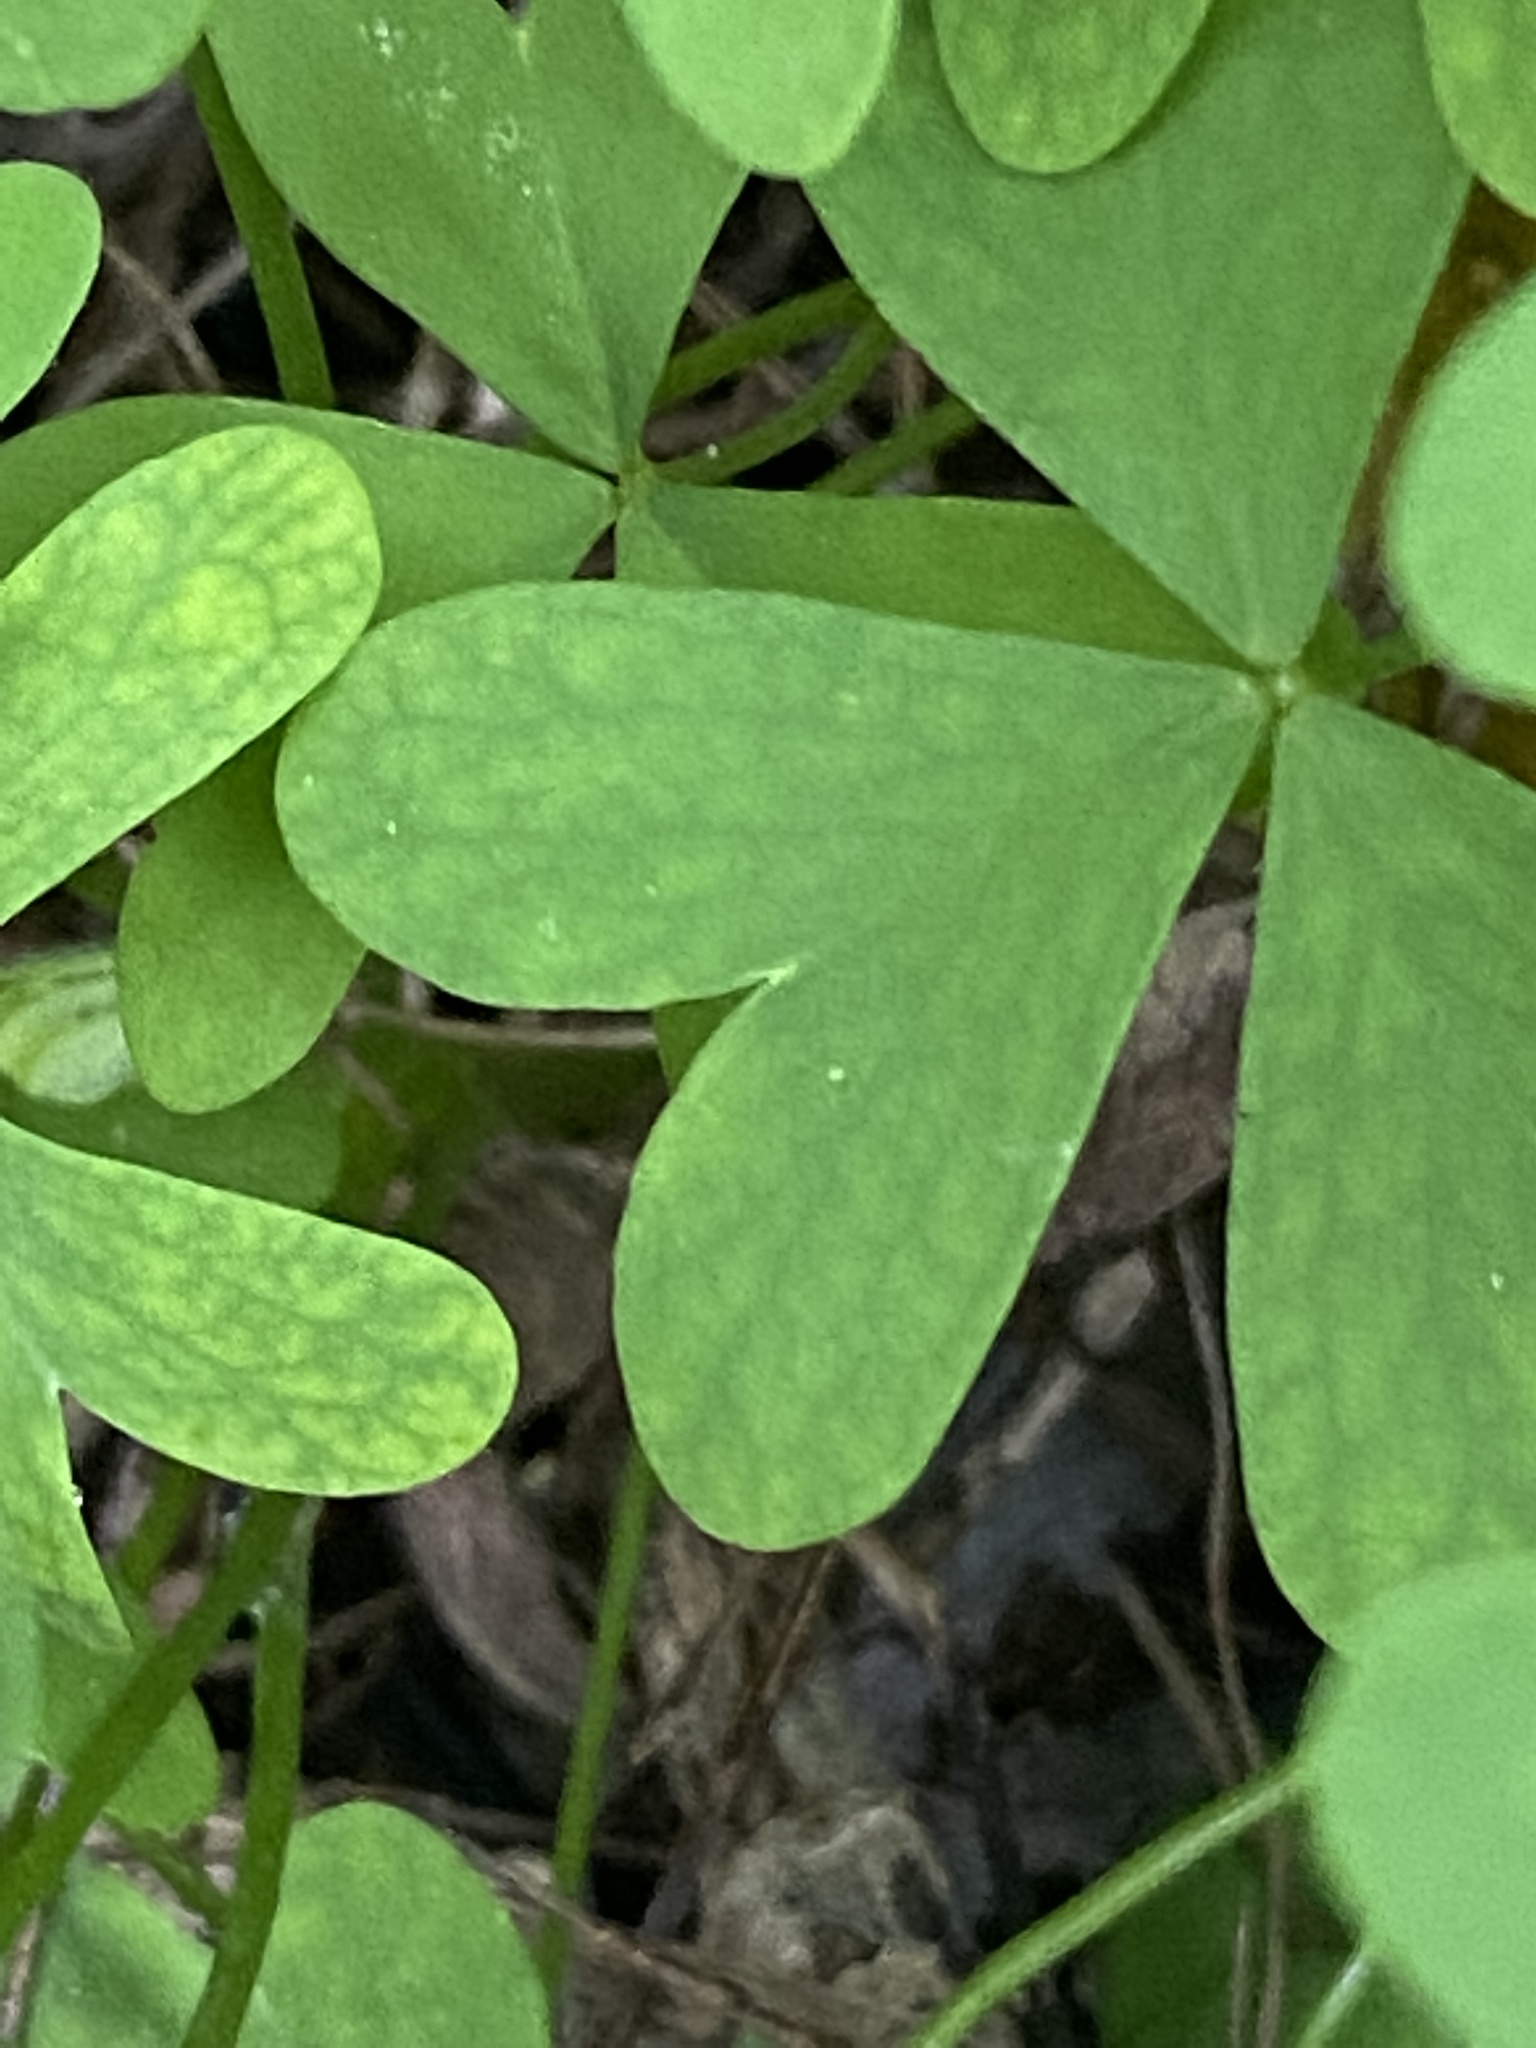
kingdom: Plantae
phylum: Tracheophyta
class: Magnoliopsida
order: Oxalidales
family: Oxalidaceae
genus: Oxalis
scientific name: Oxalis pes-caprae
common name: Bermuda-buttercup
